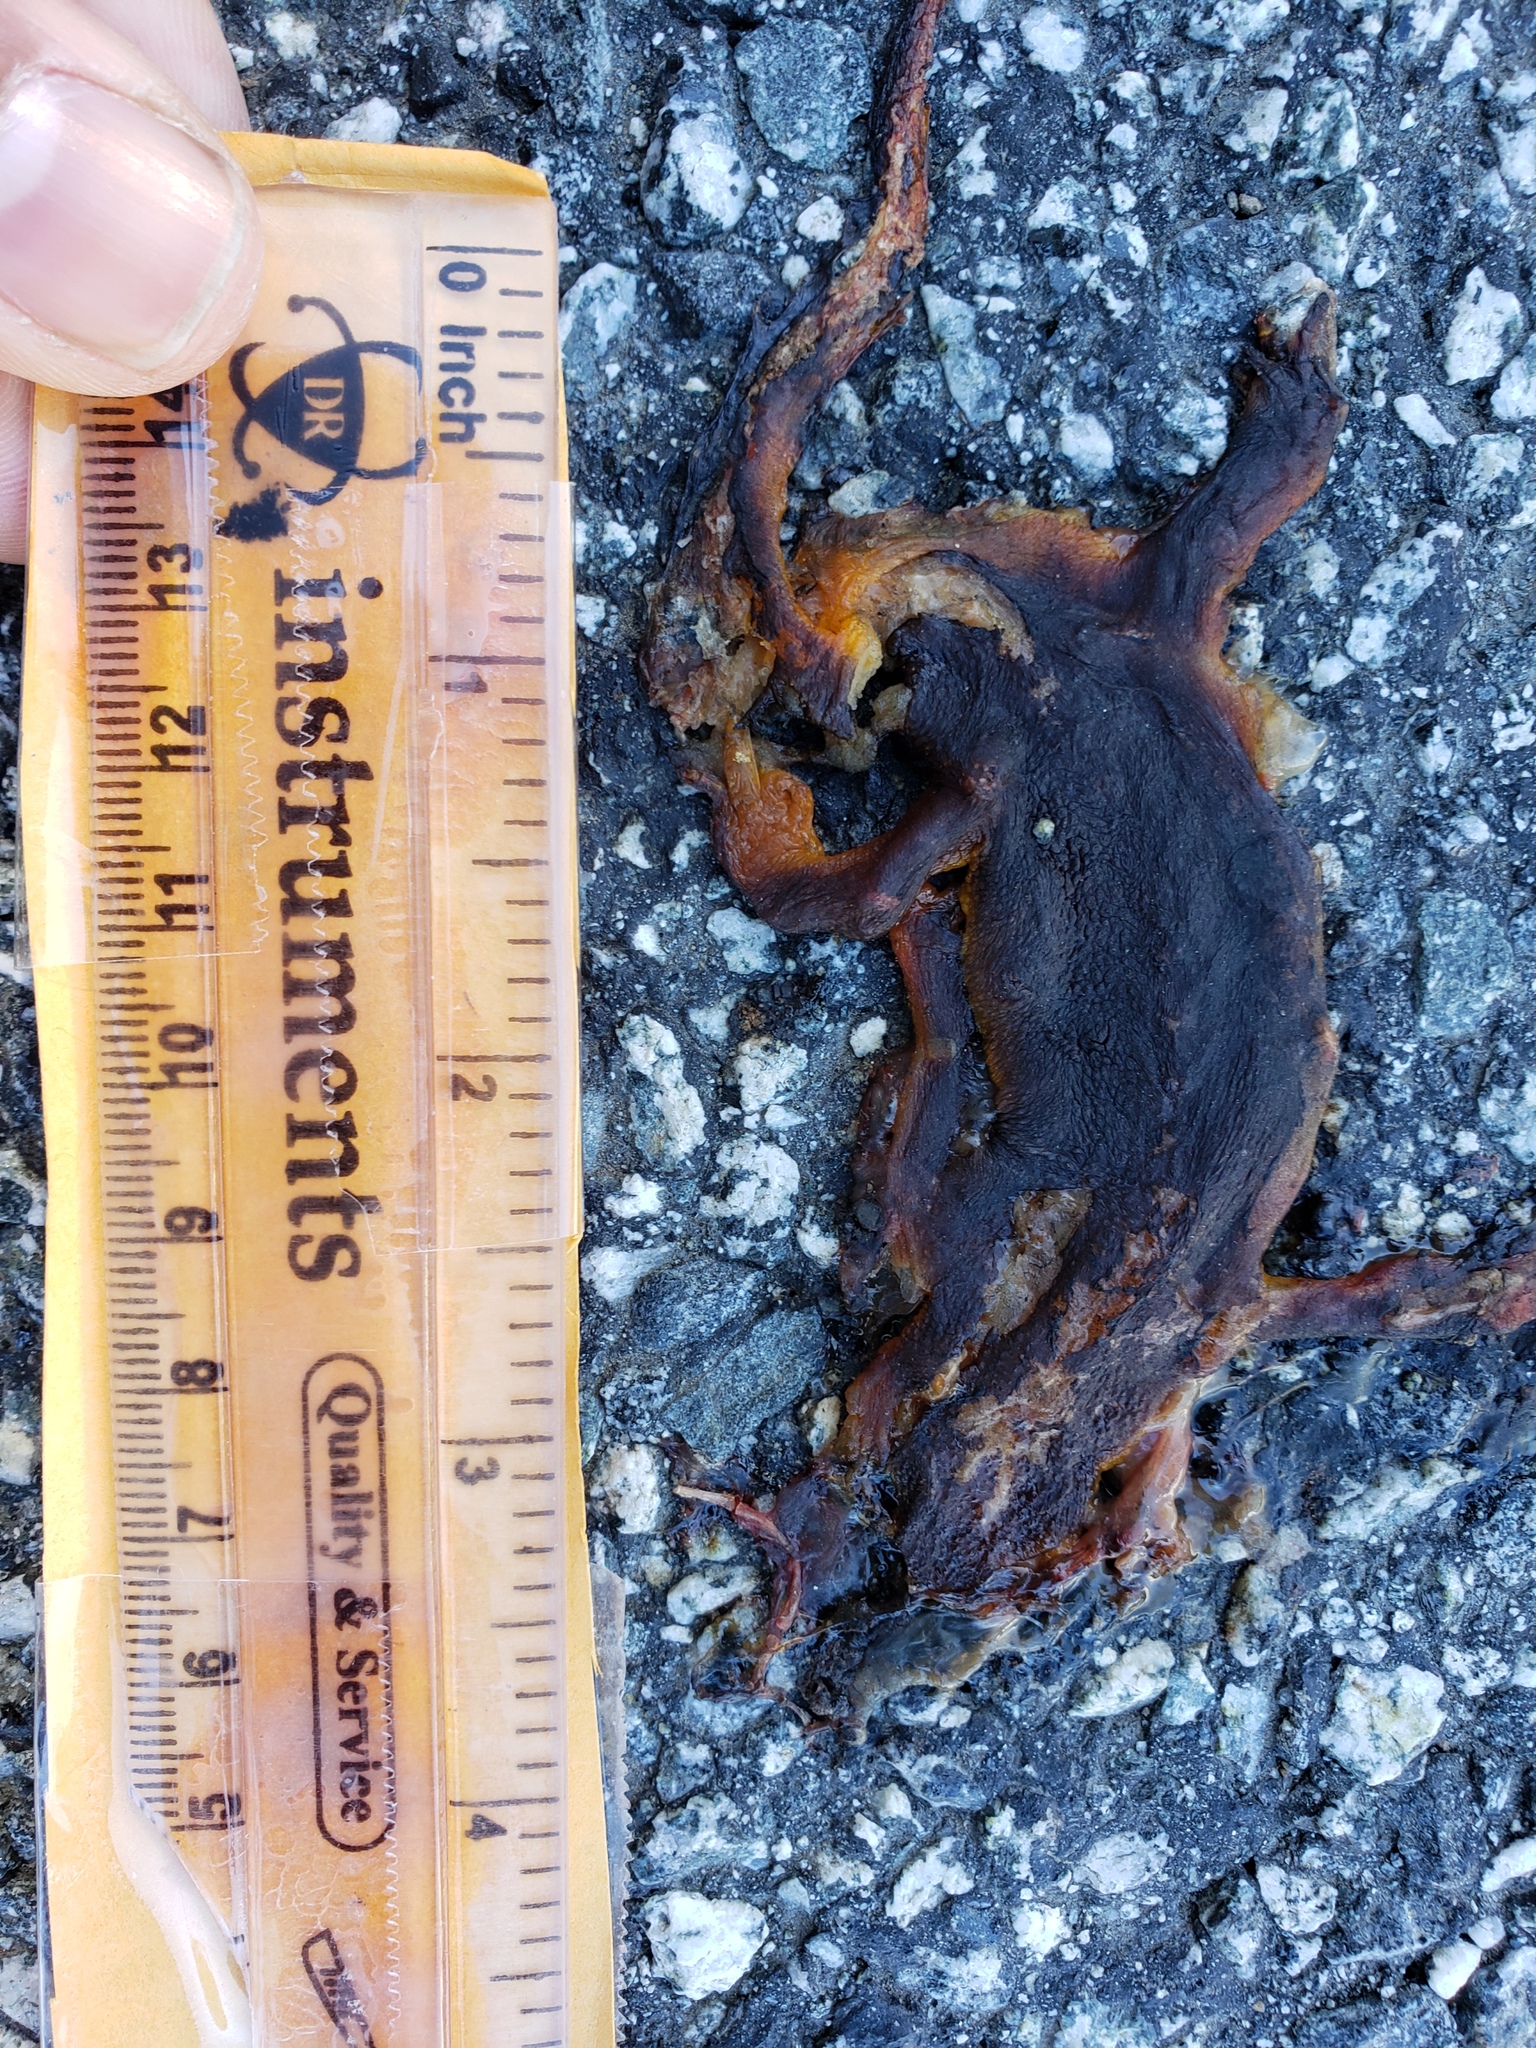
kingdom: Animalia
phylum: Chordata
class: Amphibia
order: Caudata
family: Salamandridae
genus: Taricha
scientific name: Taricha
